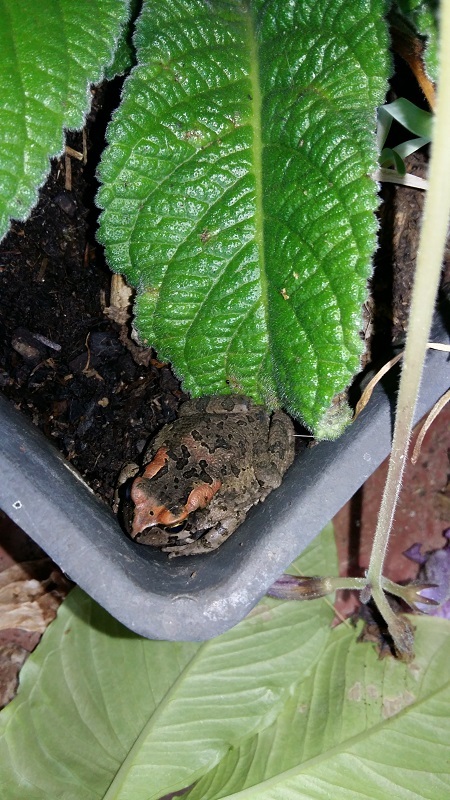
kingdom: Animalia
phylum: Chordata
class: Amphibia
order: Anura
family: Bufonidae
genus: Sclerophrys
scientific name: Sclerophrys capensis
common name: Ranger’s toad
